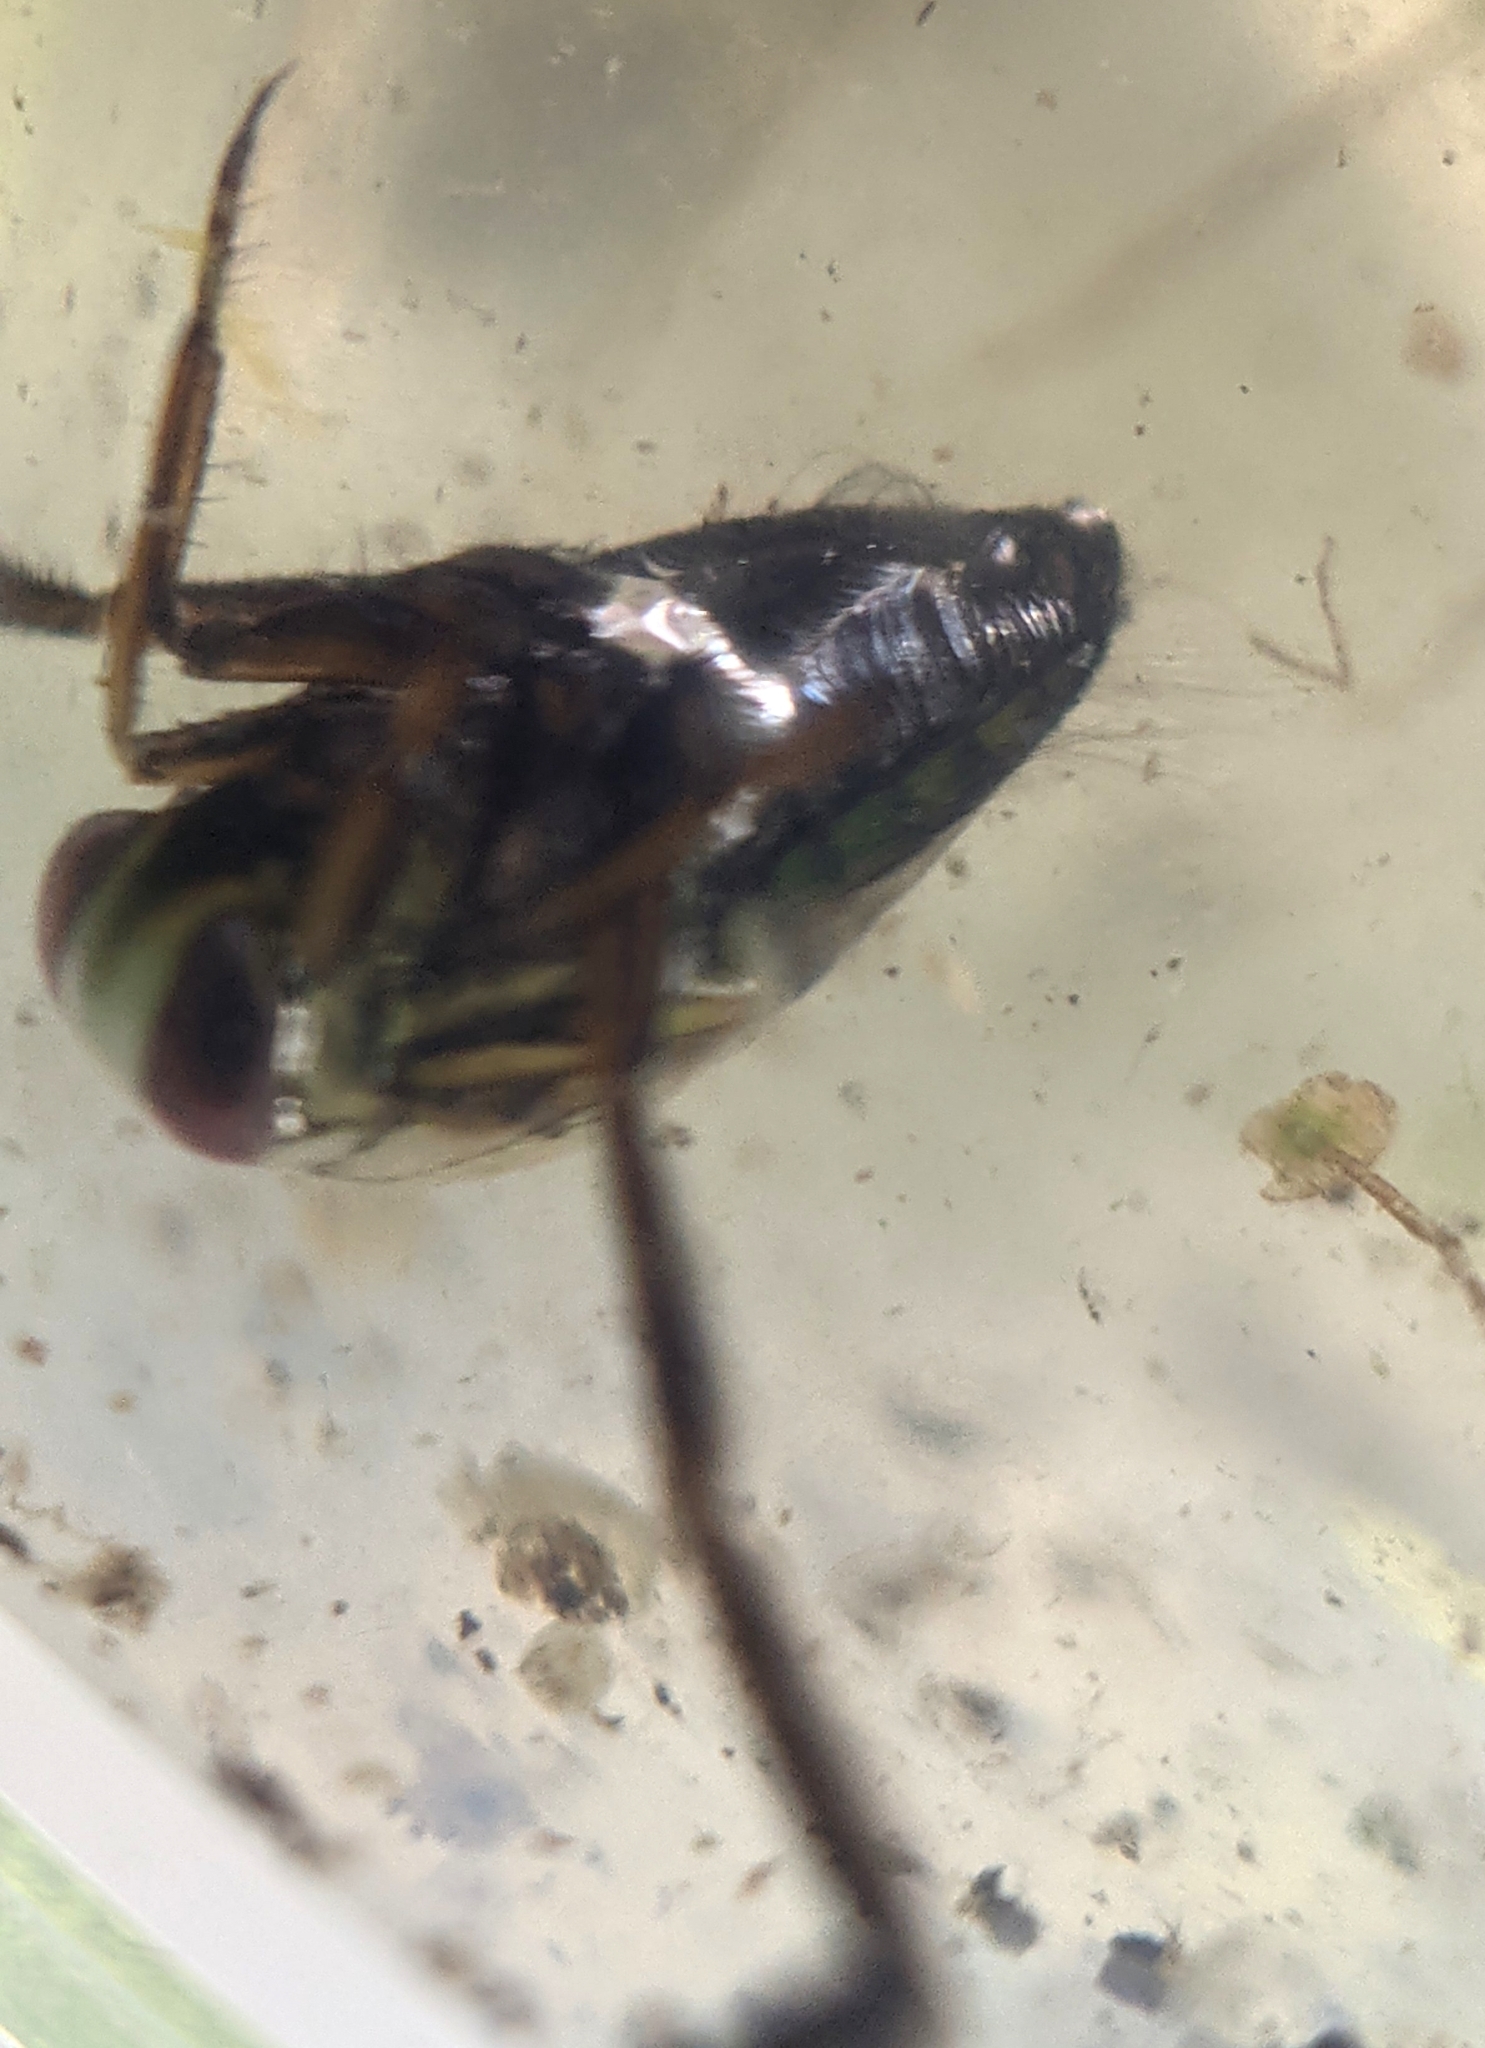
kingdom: Animalia
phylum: Arthropoda
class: Insecta
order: Hemiptera
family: Notonectidae
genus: Notonecta
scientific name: Notonecta
